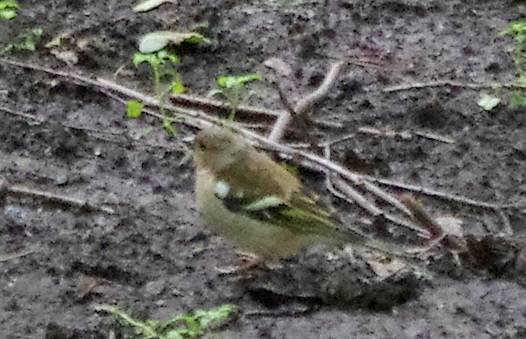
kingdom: Animalia
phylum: Chordata
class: Aves
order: Passeriformes
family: Fringillidae
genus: Fringilla
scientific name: Fringilla coelebs
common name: Common chaffinch
